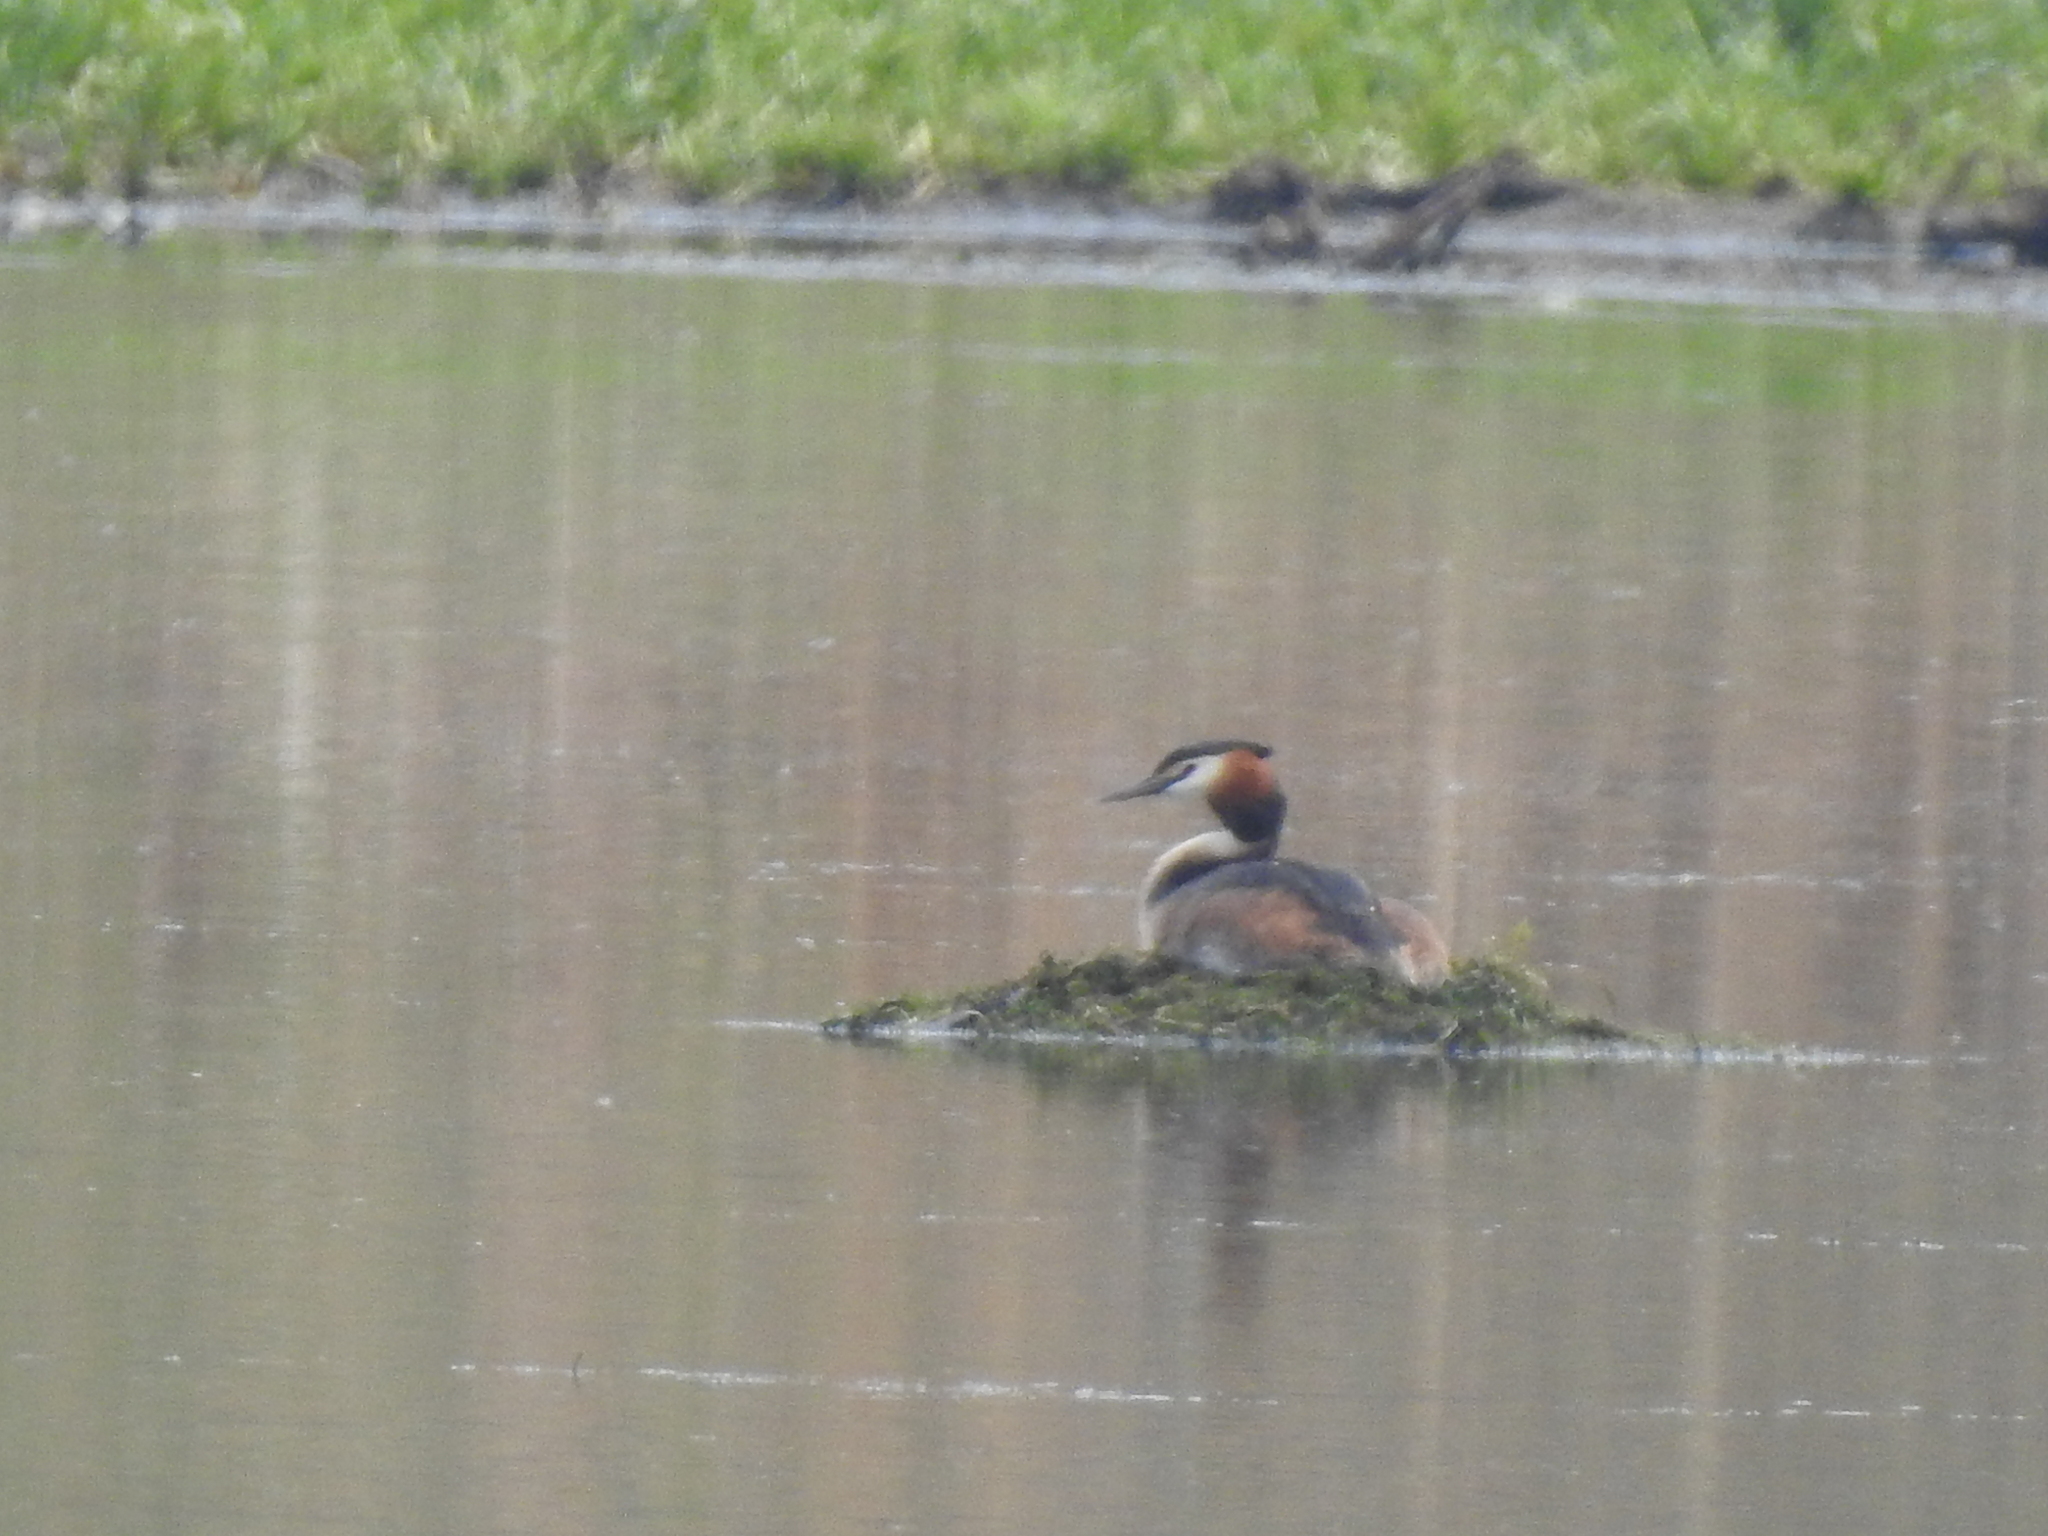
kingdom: Animalia
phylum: Chordata
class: Aves
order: Podicipediformes
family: Podicipedidae
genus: Podiceps
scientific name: Podiceps cristatus
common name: Great crested grebe
